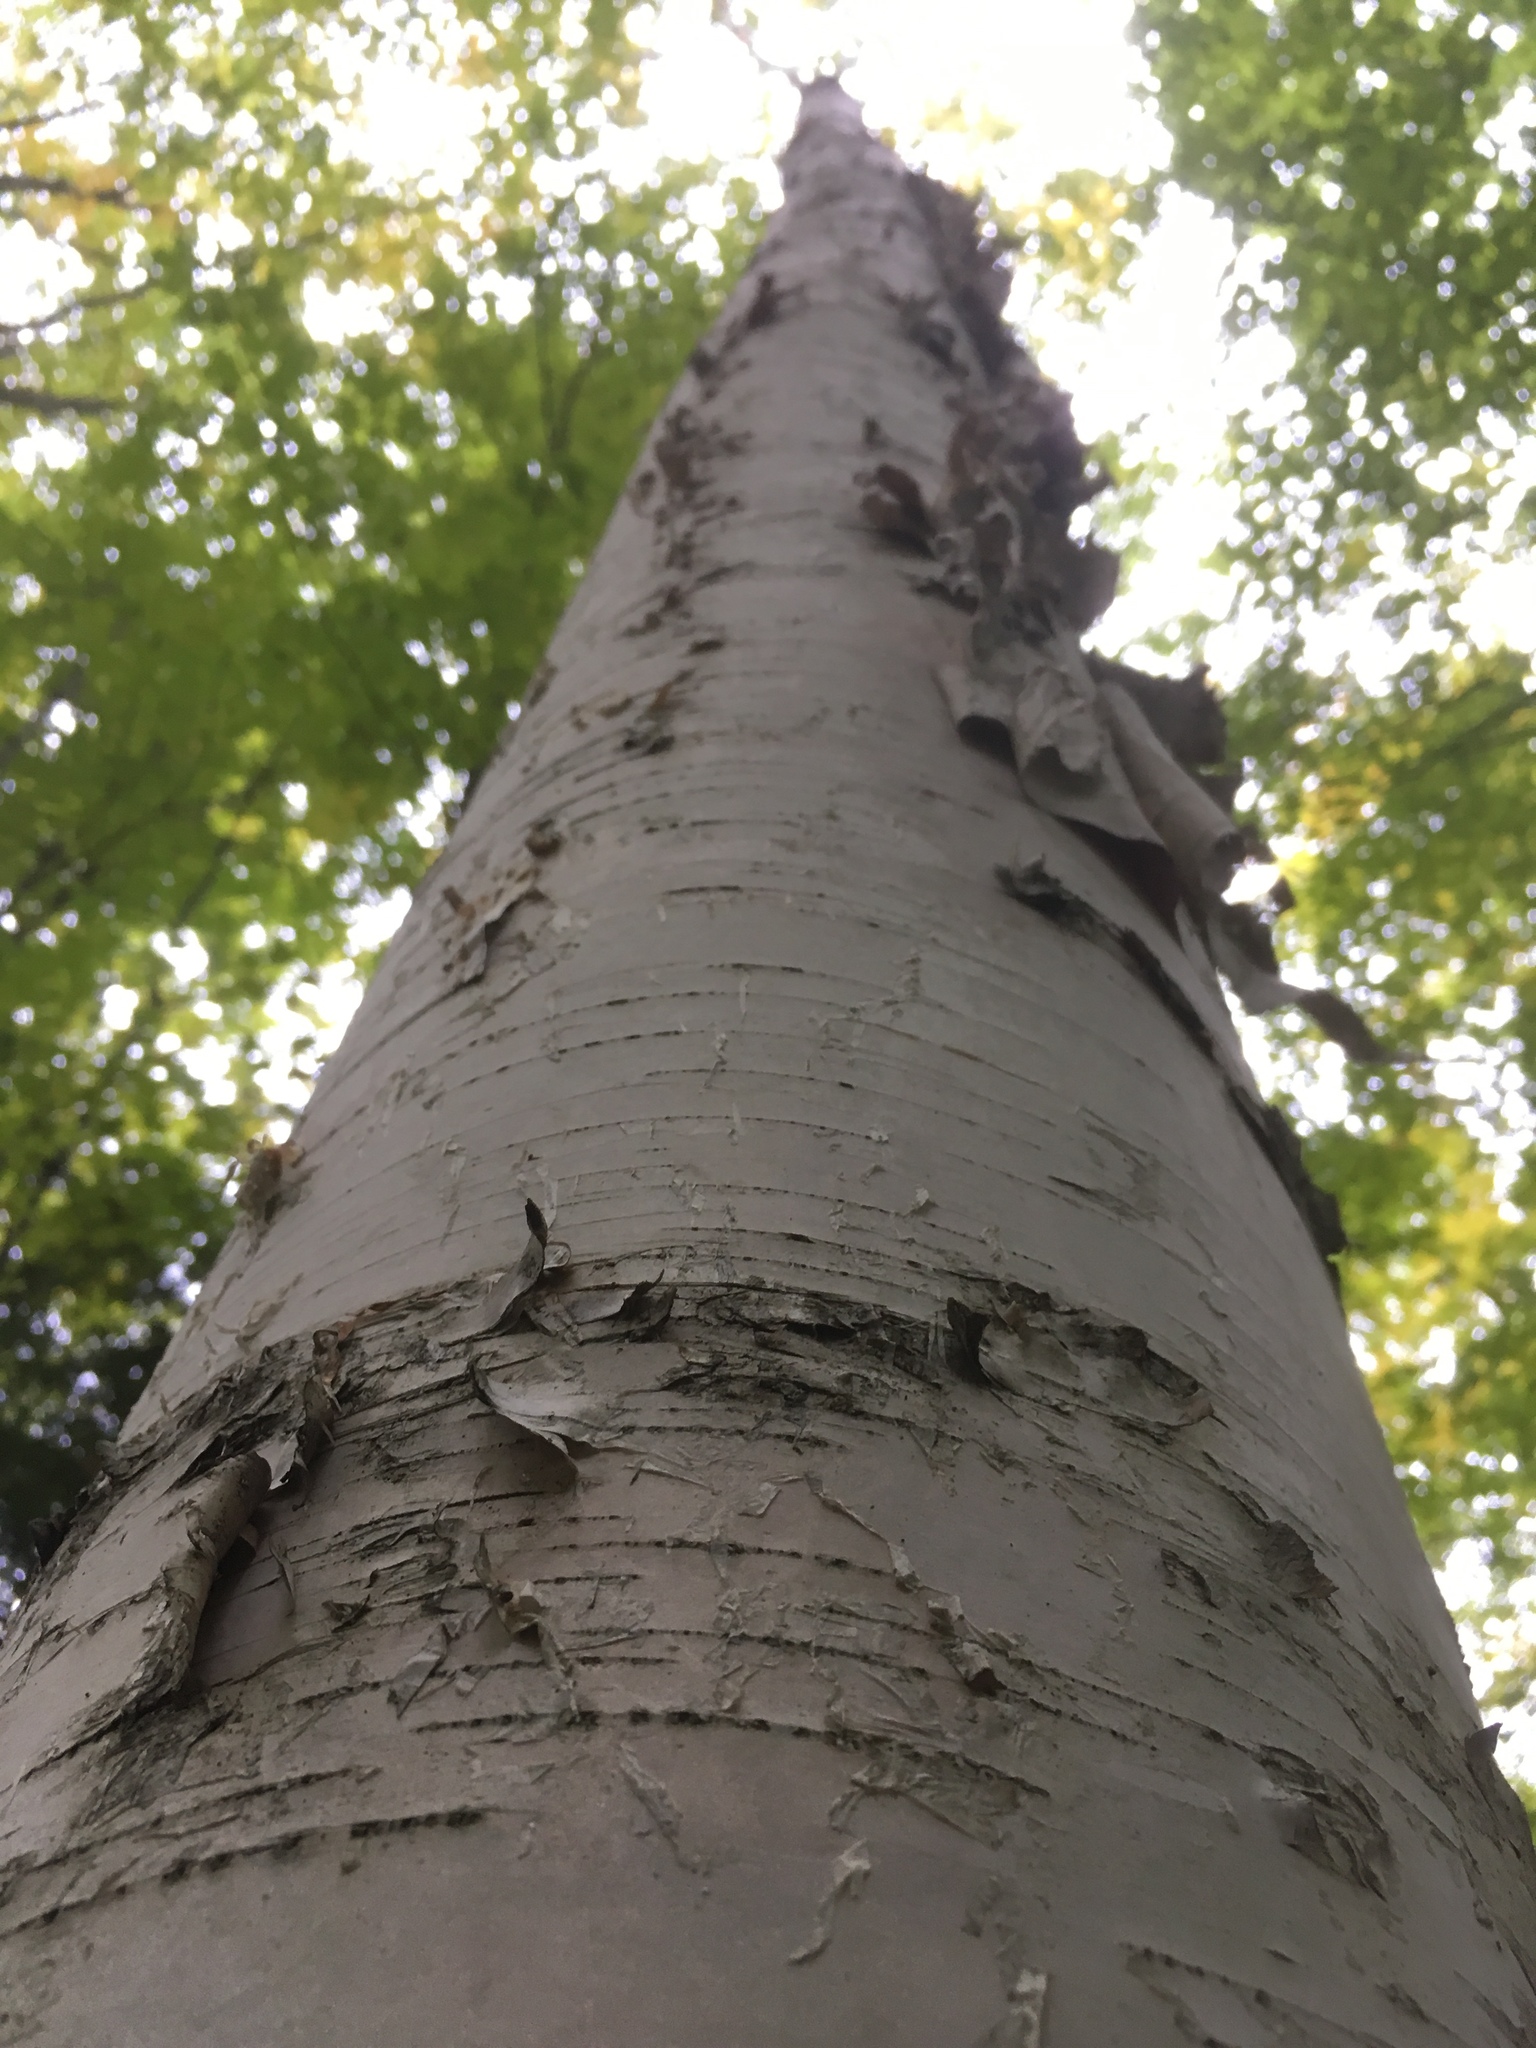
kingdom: Plantae
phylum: Tracheophyta
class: Magnoliopsida
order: Fagales
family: Betulaceae
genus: Betula
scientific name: Betula papyrifera
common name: Paper birch
